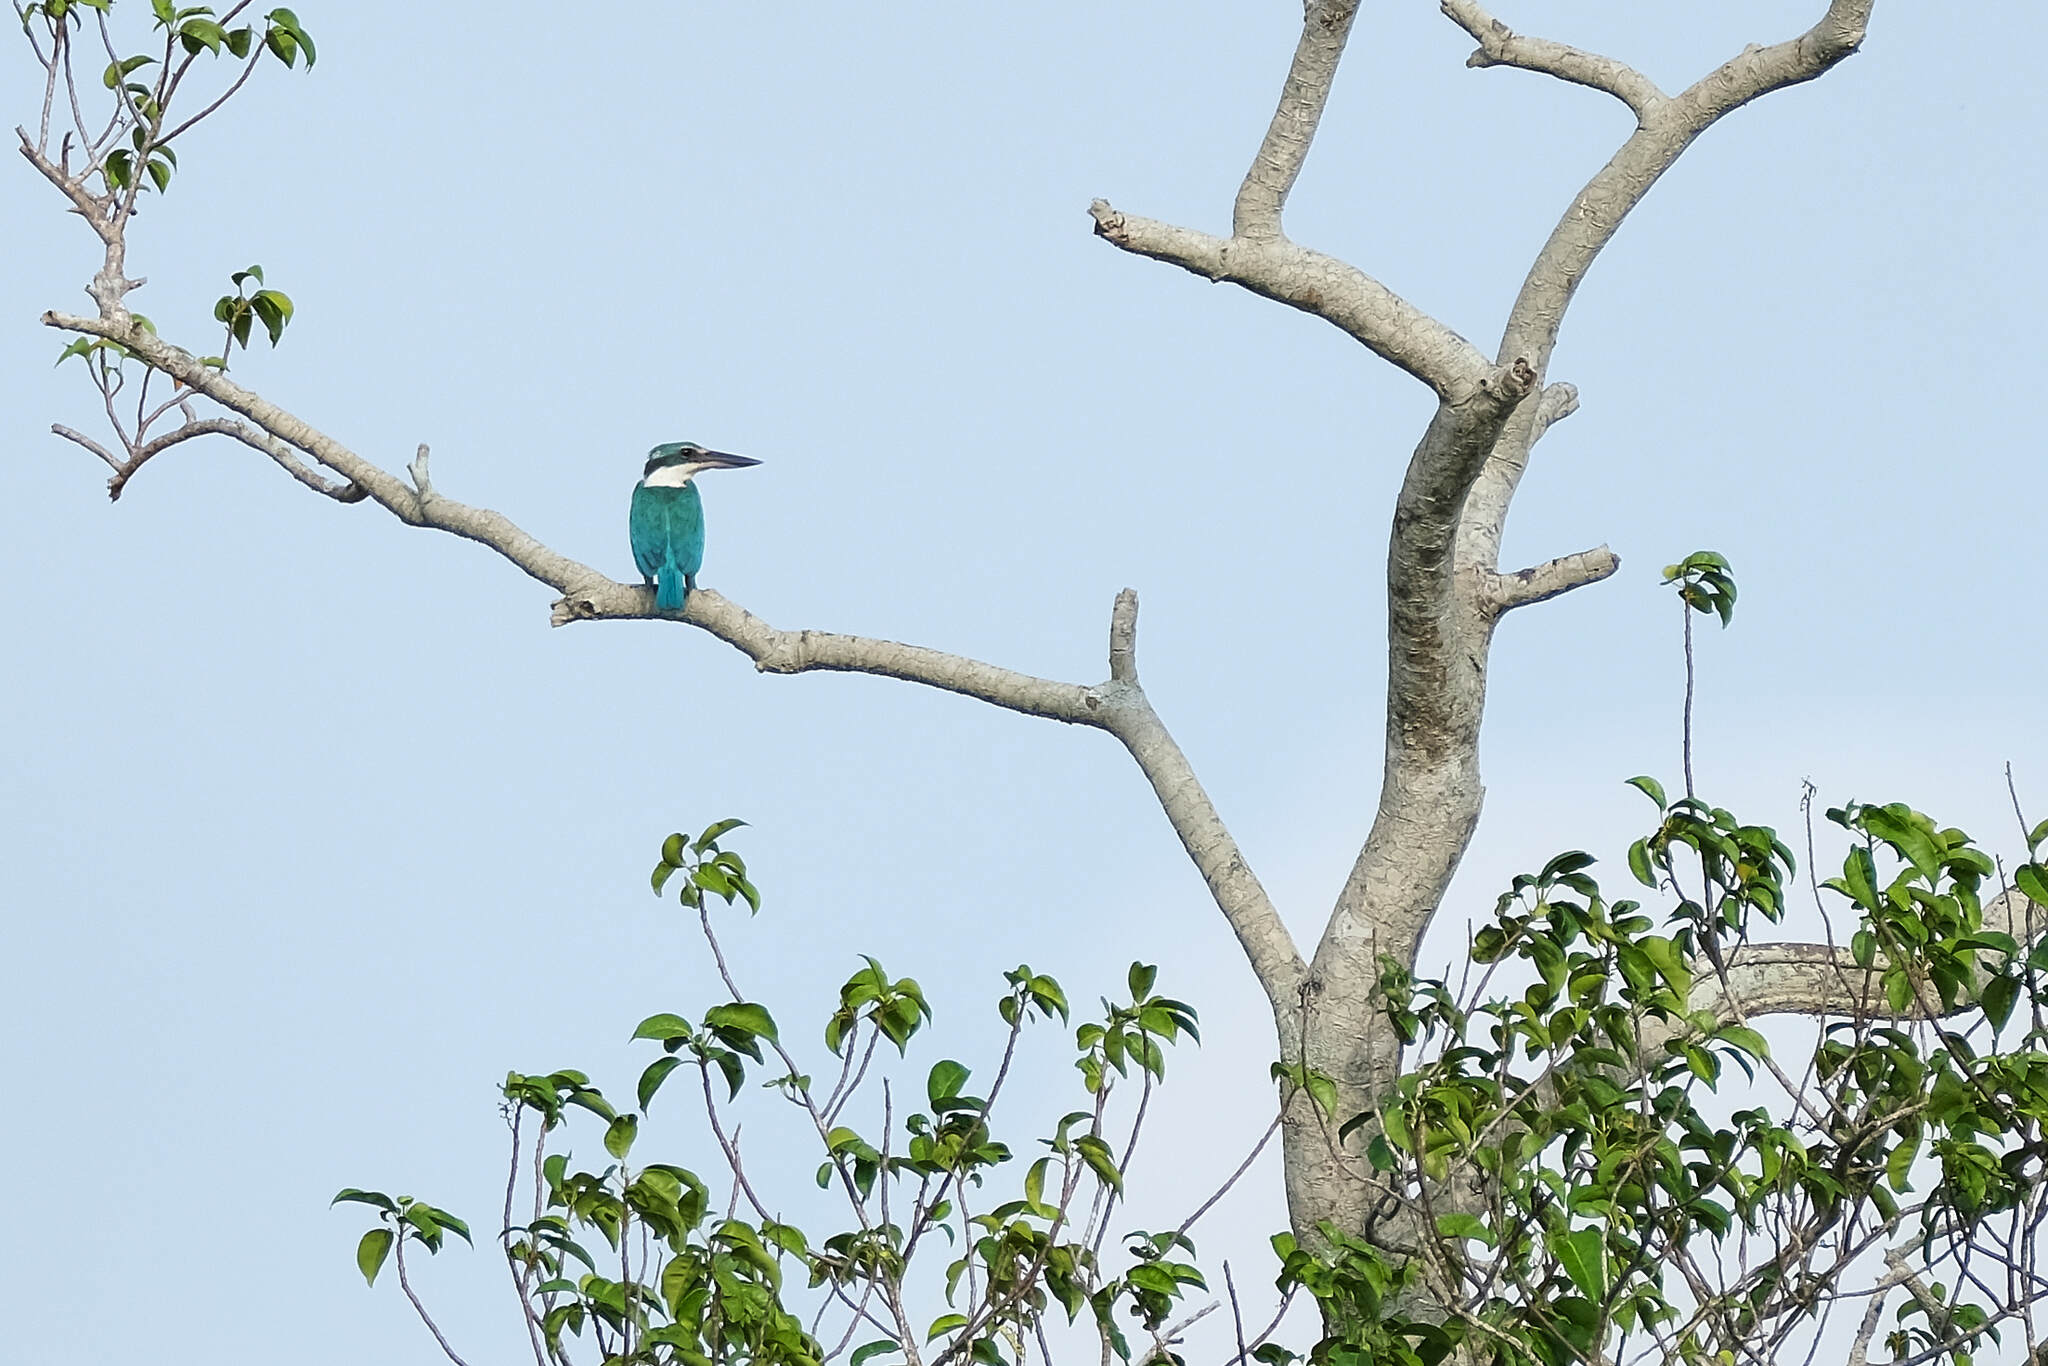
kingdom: Animalia
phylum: Chordata
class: Aves
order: Coraciiformes
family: Alcedinidae
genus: Todiramphus
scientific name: Todiramphus chloris
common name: Collared kingfisher
